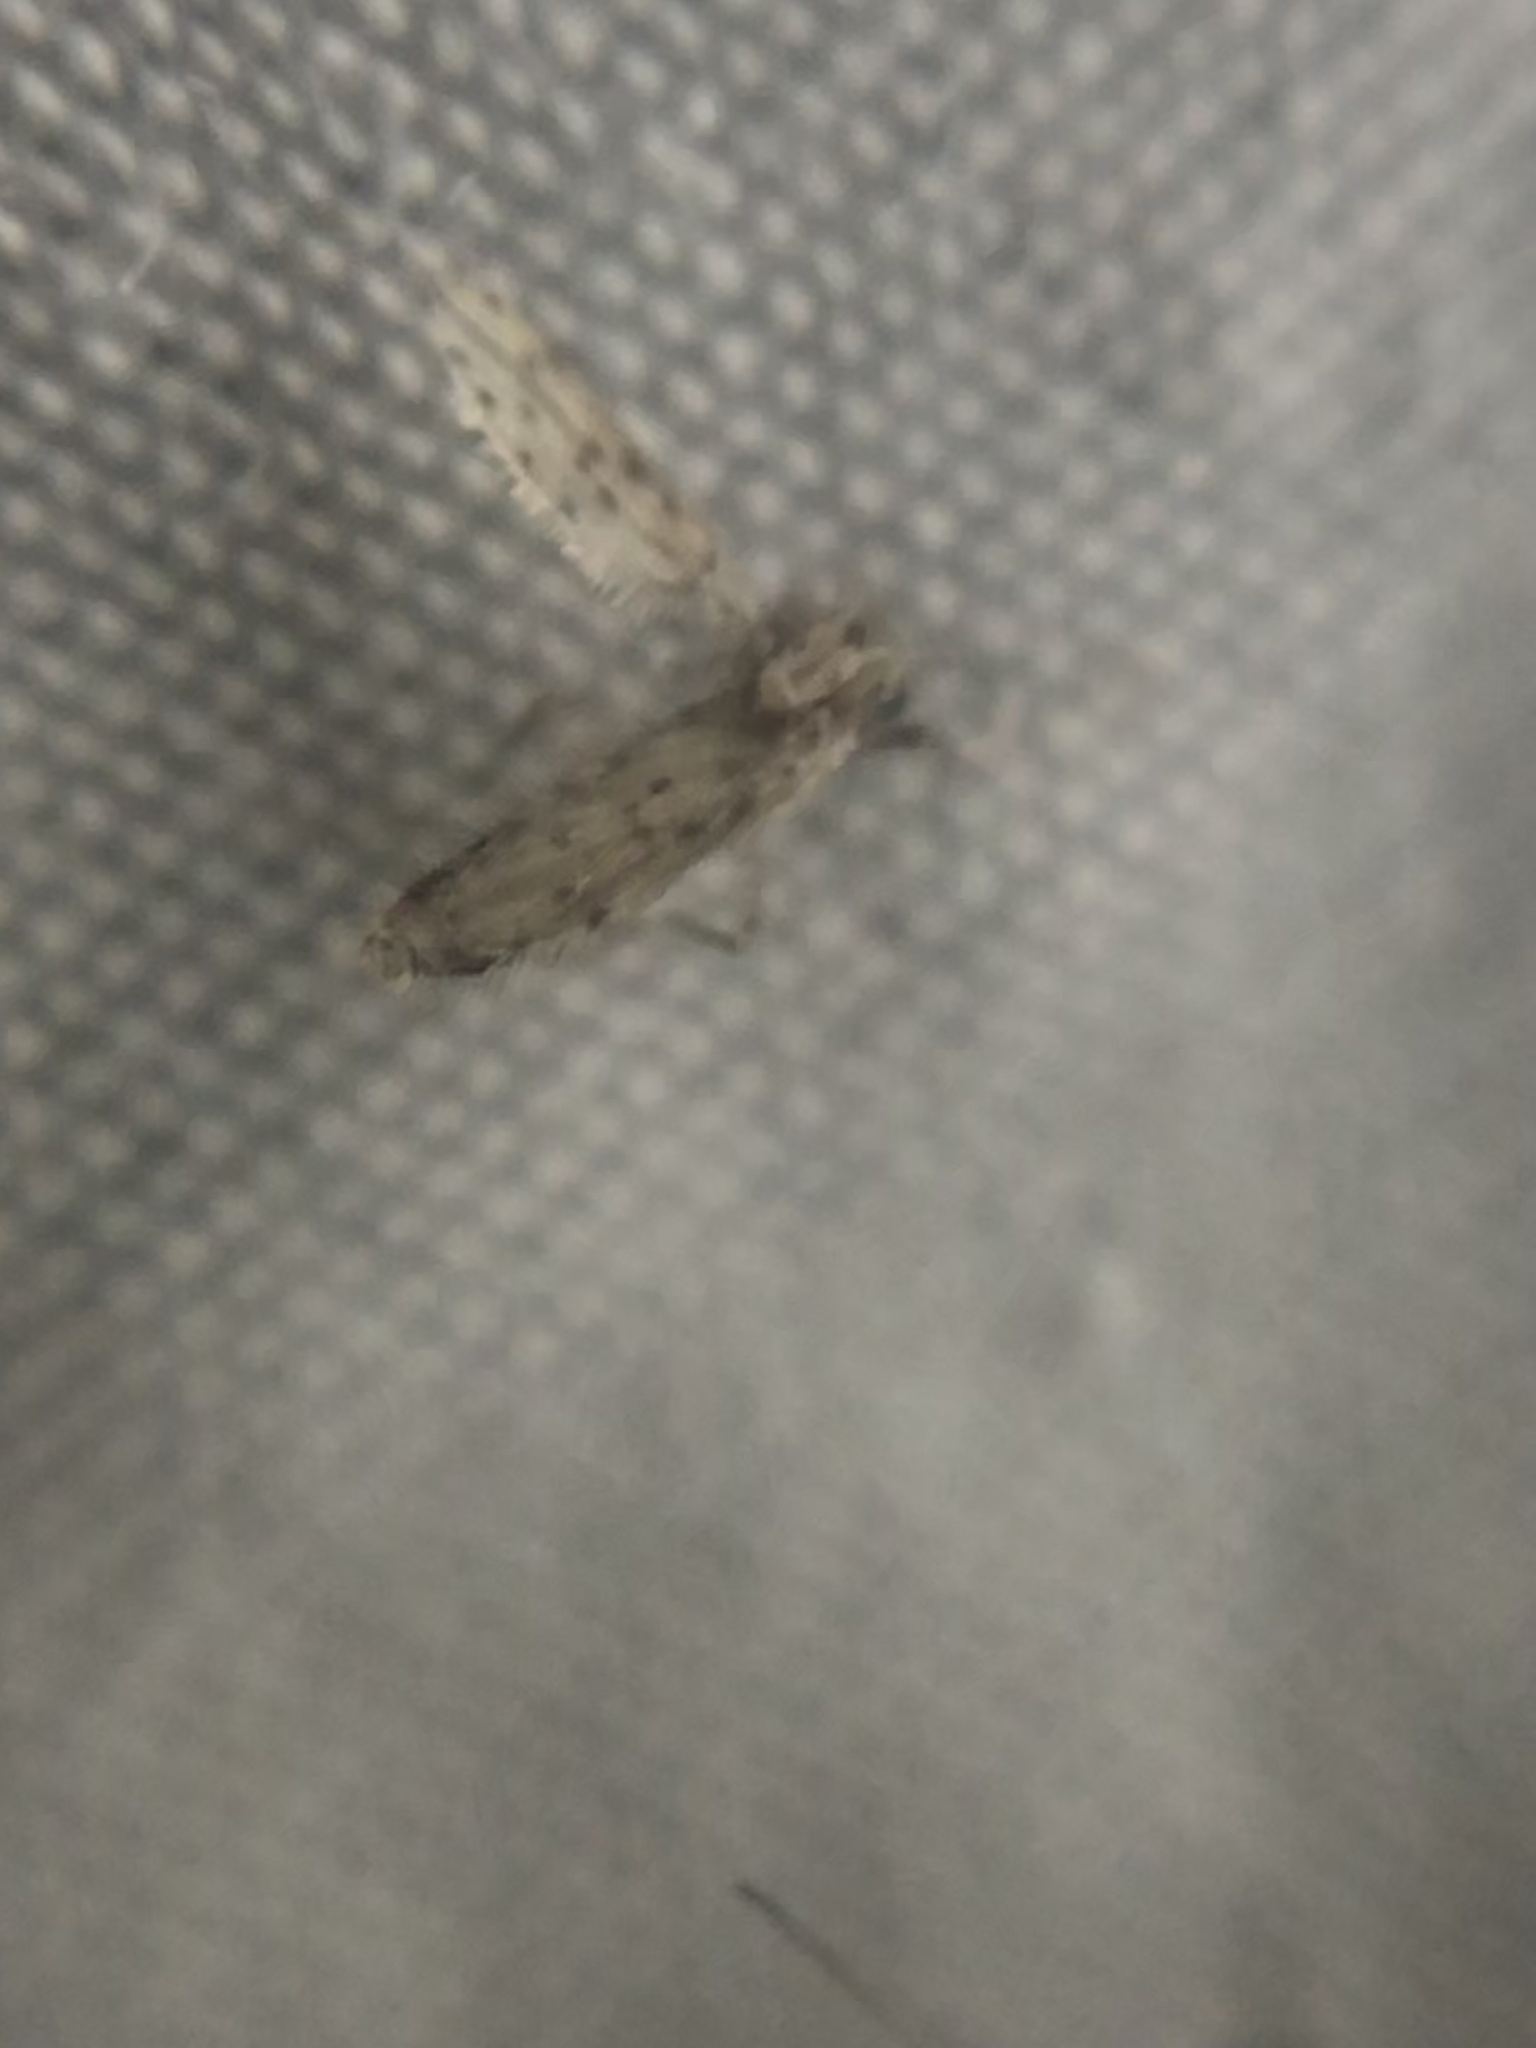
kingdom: Animalia
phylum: Arthropoda
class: Insecta
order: Diptera
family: Chaoboridae
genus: Chaoborus
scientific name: Chaoborus punctipennis
